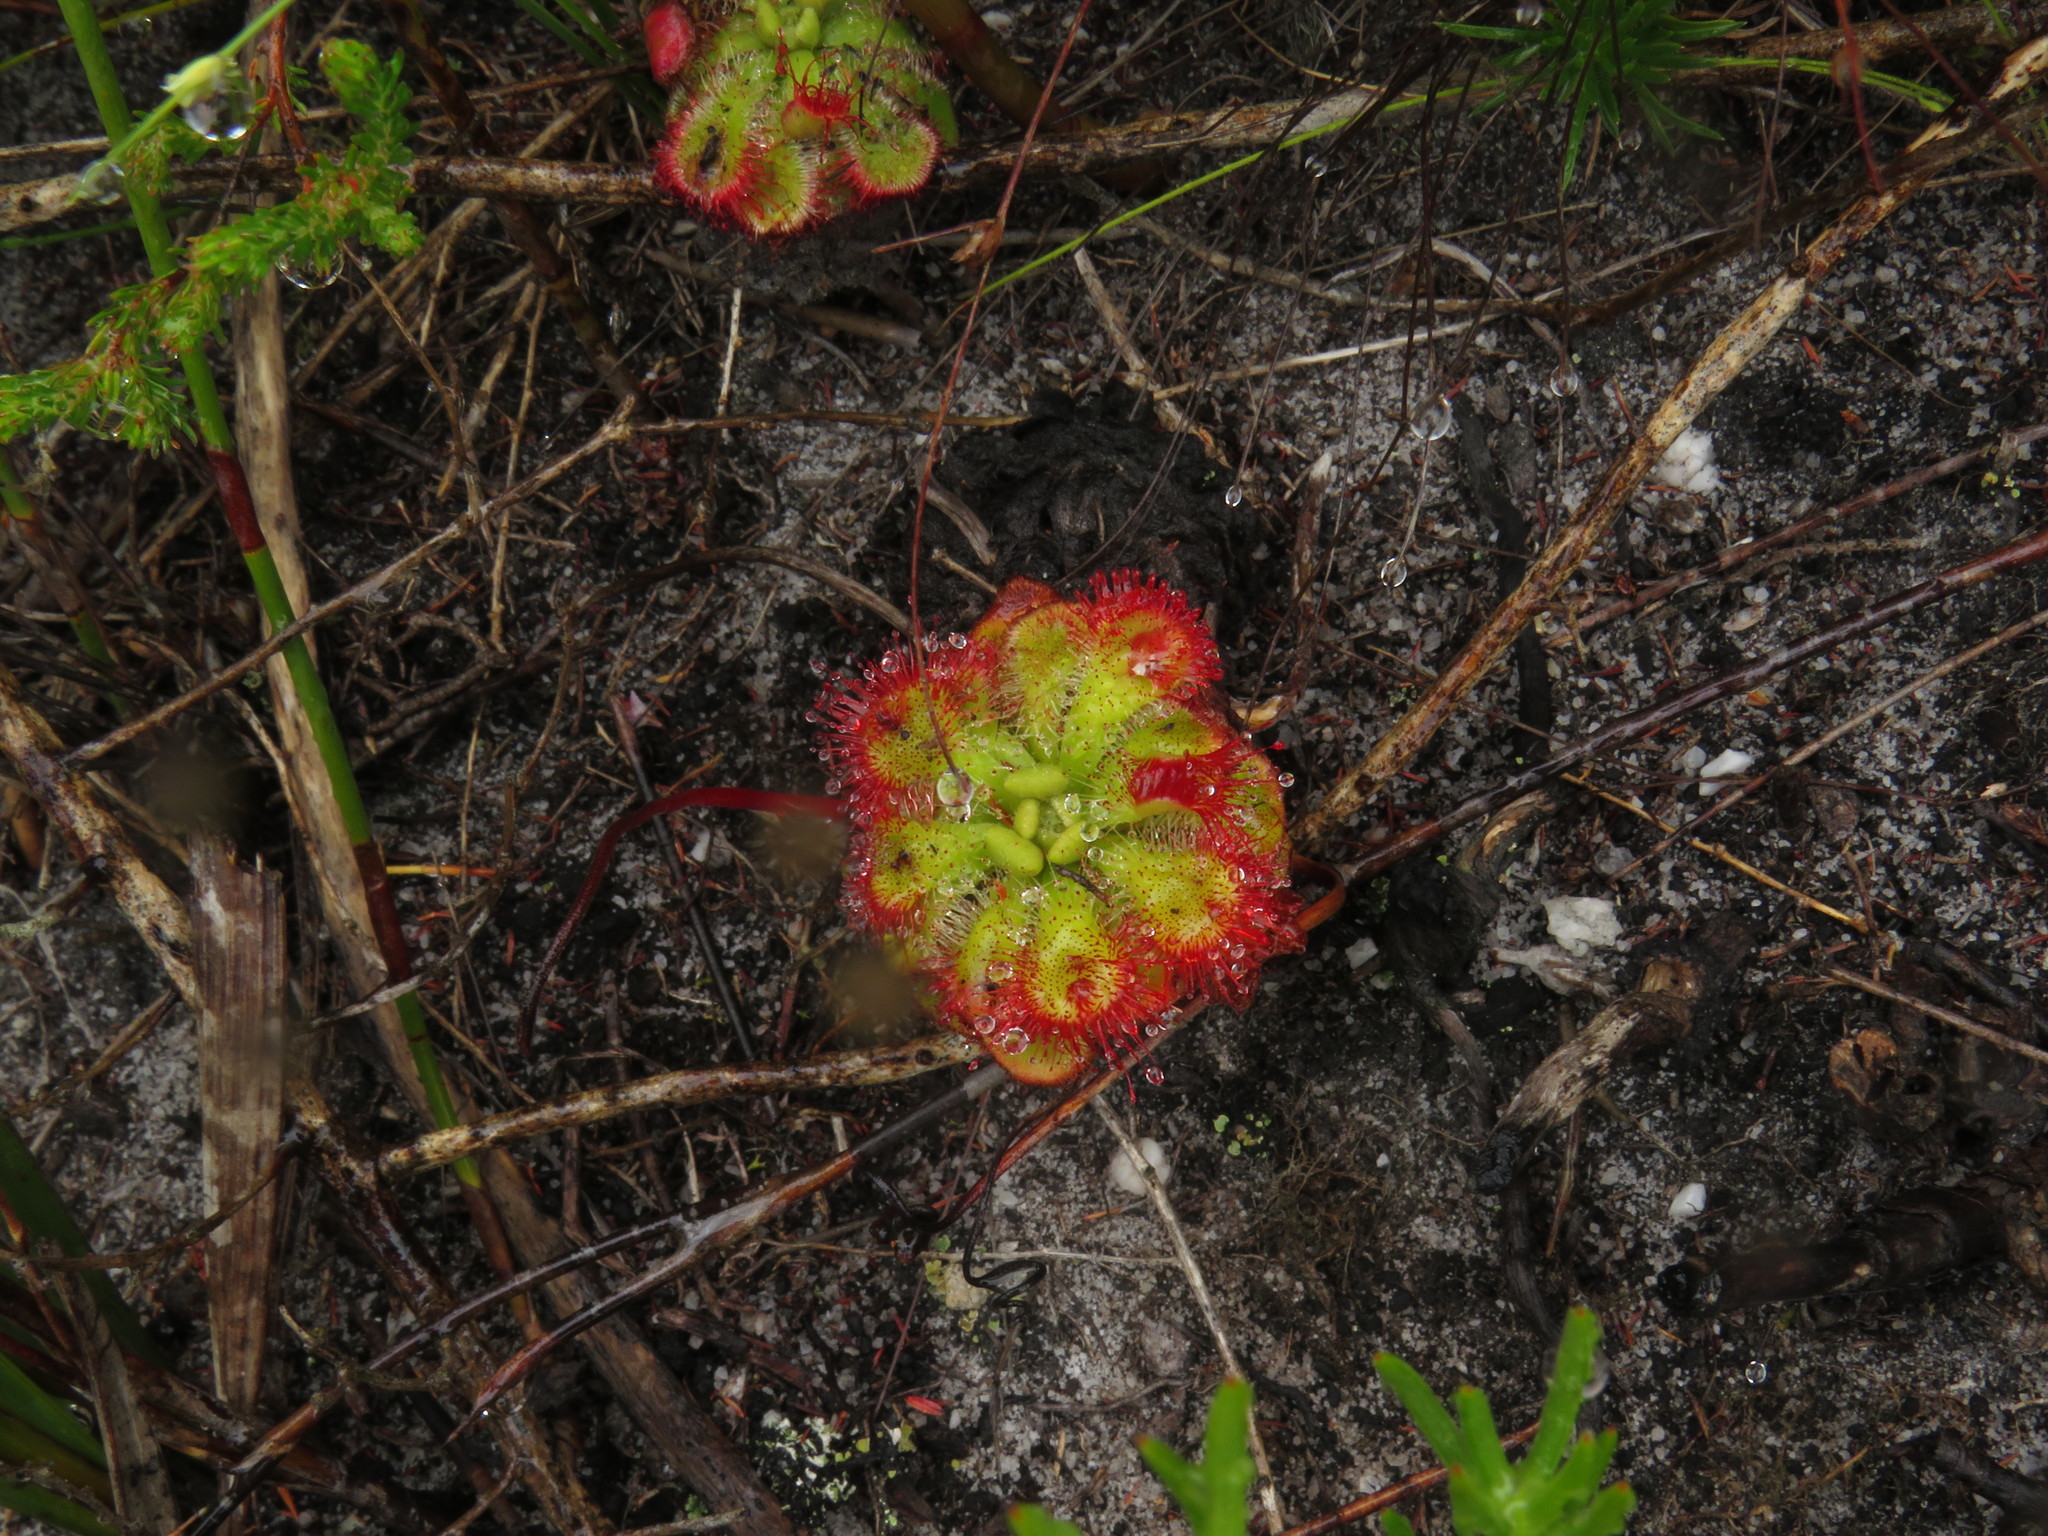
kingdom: Plantae
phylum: Tracheophyta
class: Magnoliopsida
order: Caryophyllales
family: Droseraceae
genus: Drosera
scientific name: Drosera xerophila
